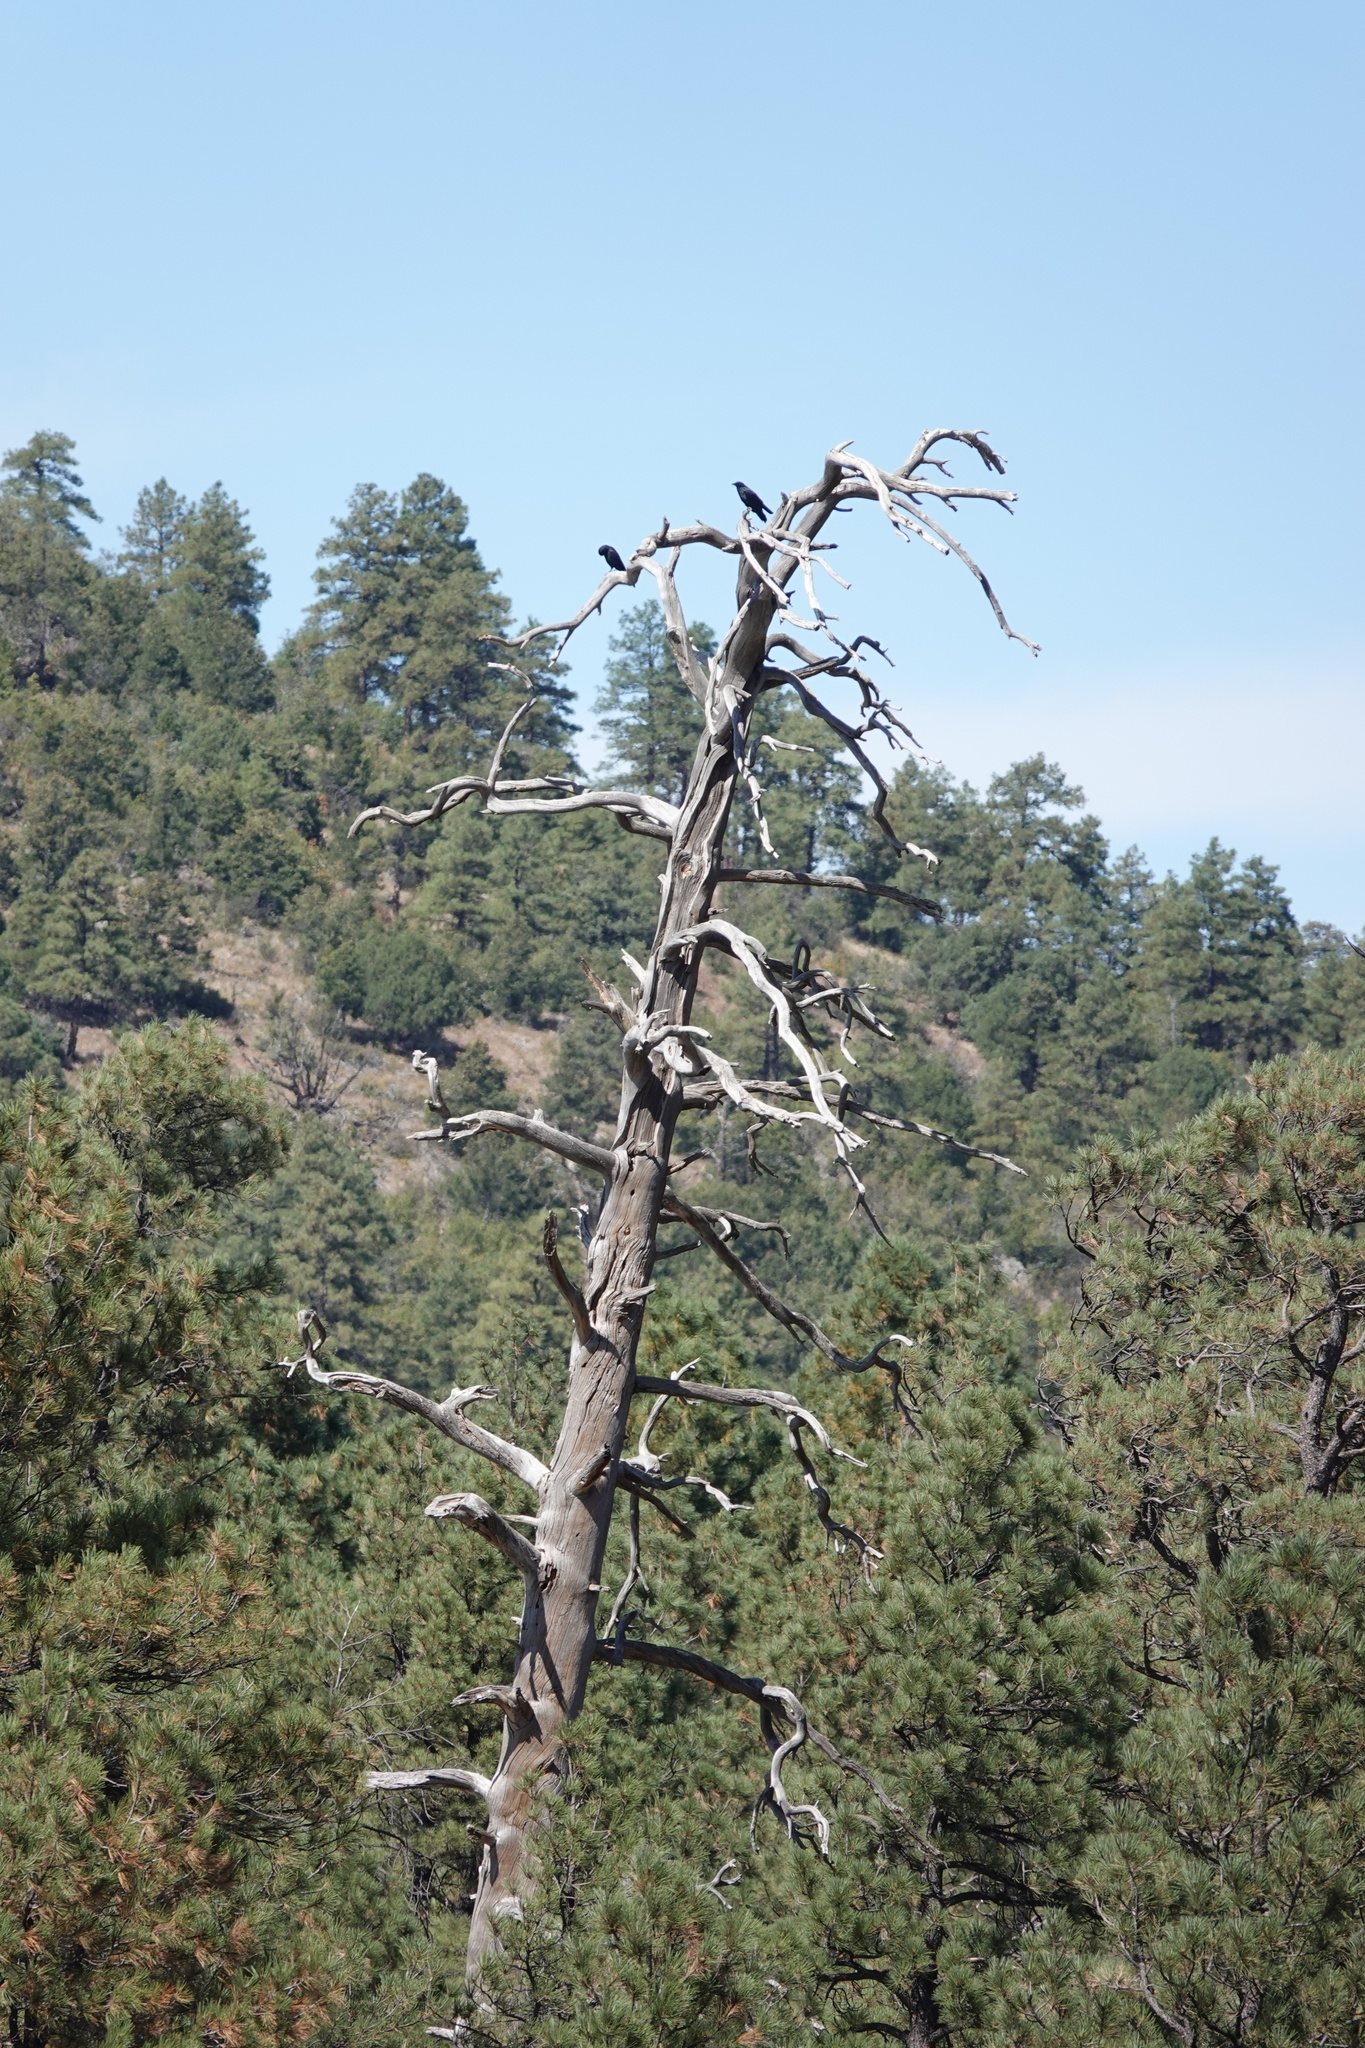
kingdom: Animalia
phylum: Chordata
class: Aves
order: Passeriformes
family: Corvidae
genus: Corvus
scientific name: Corvus brachyrhynchos
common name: American crow
